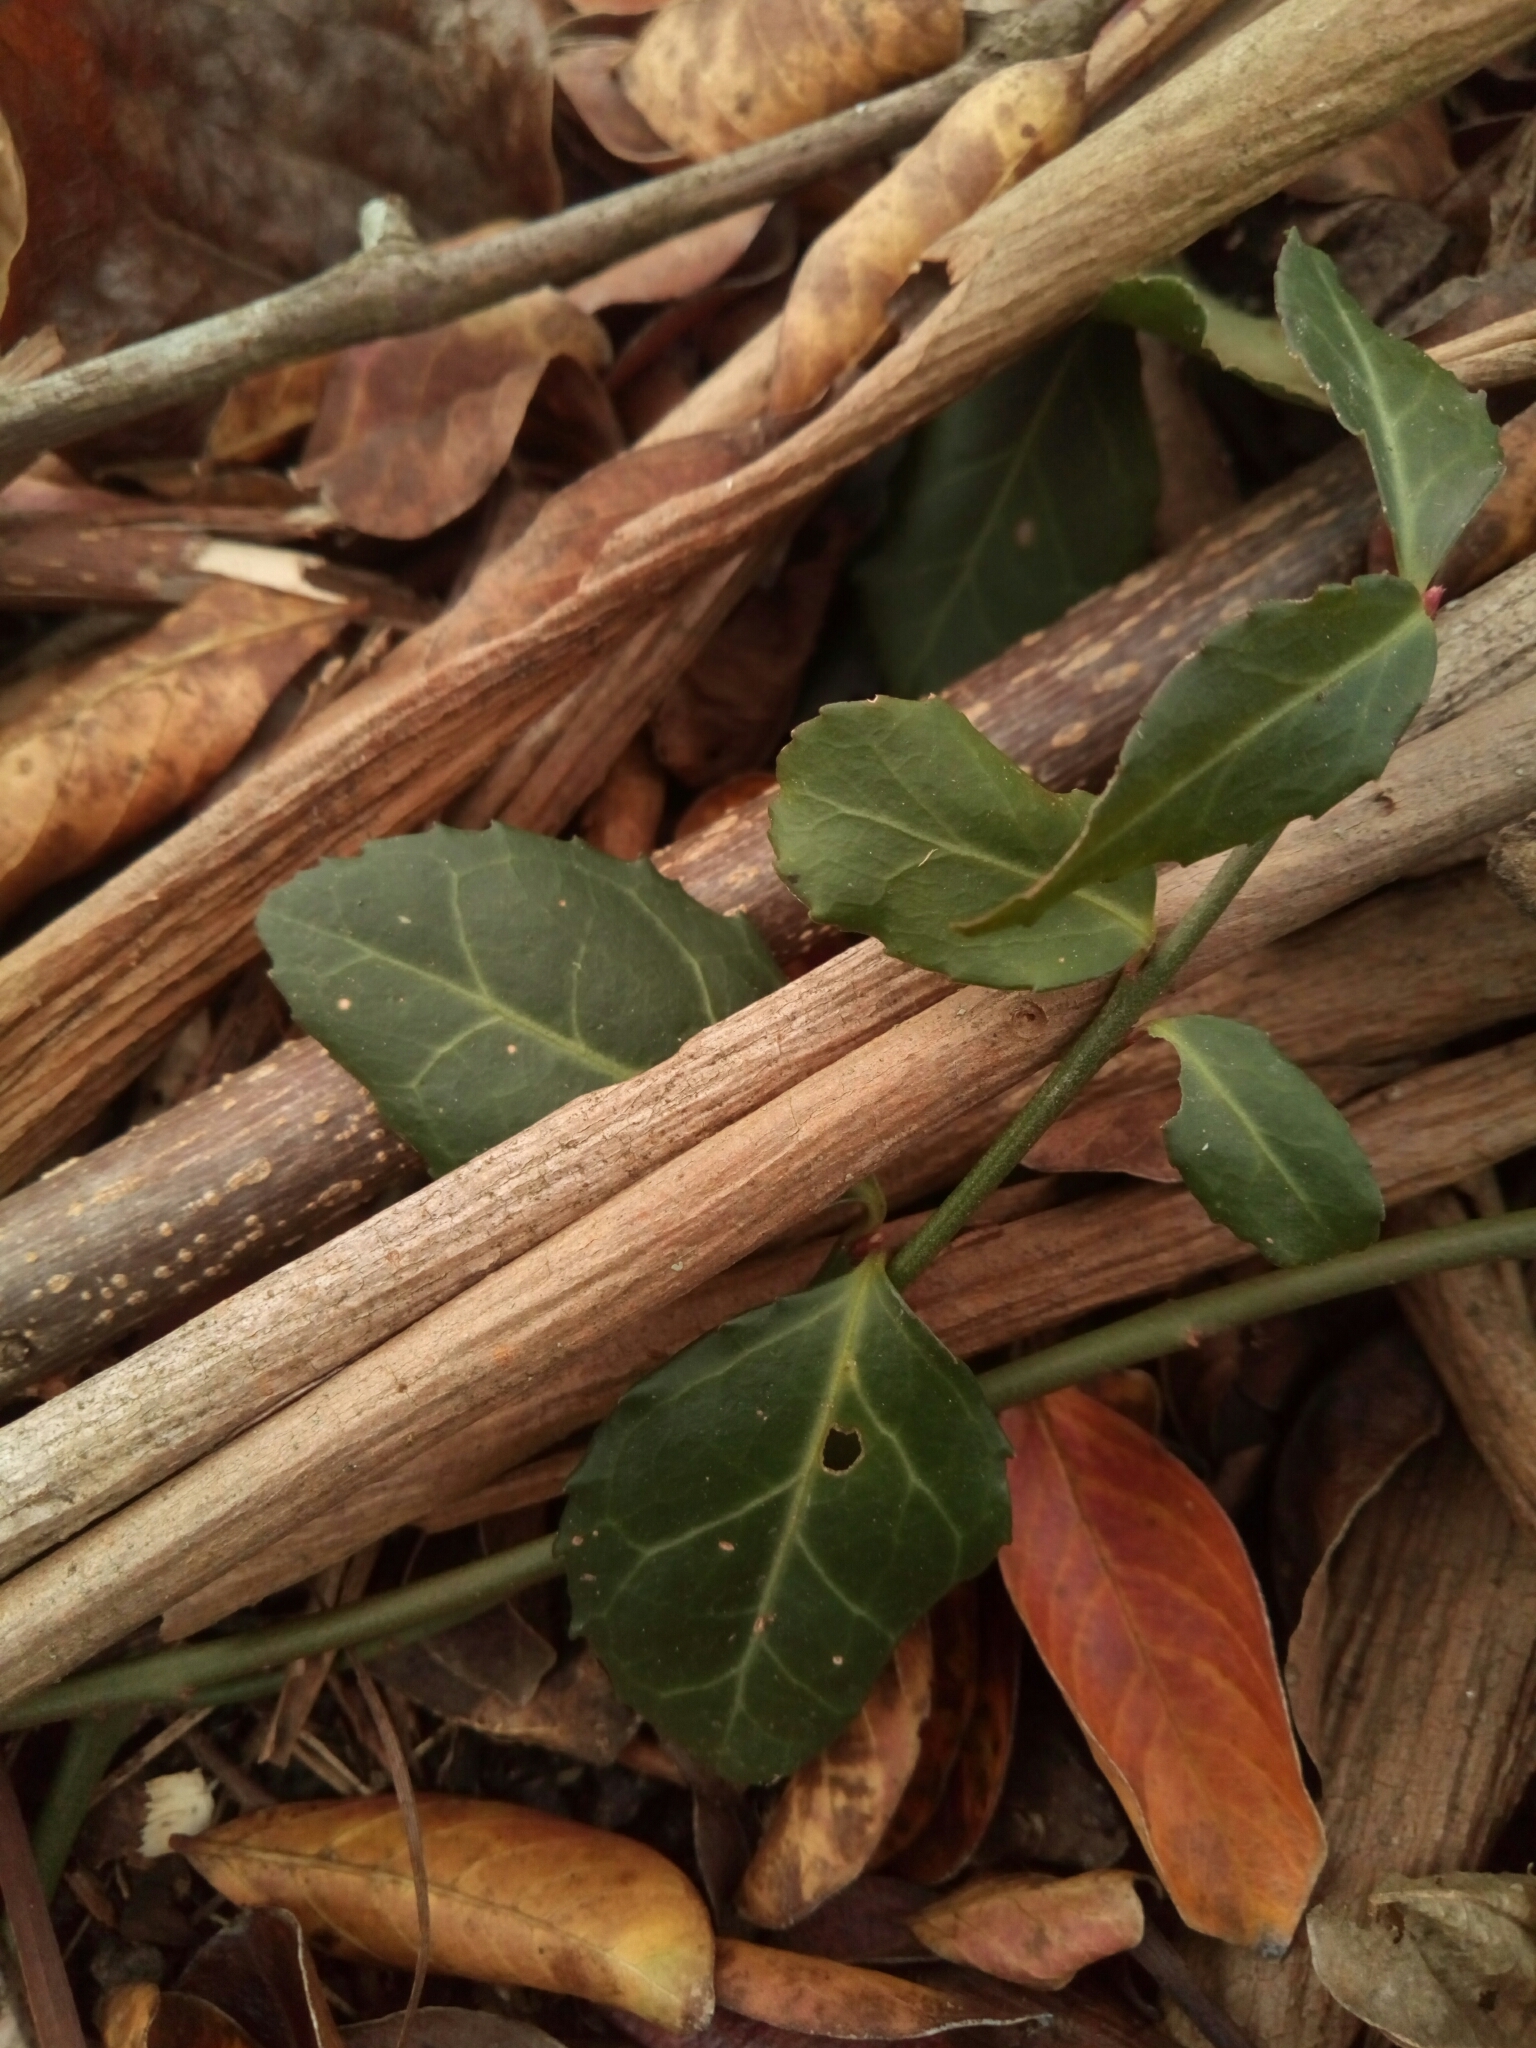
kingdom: Plantae
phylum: Tracheophyta
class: Magnoliopsida
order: Celastrales
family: Celastraceae
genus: Euonymus
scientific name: Euonymus fortunei
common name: Climbing euonymus
